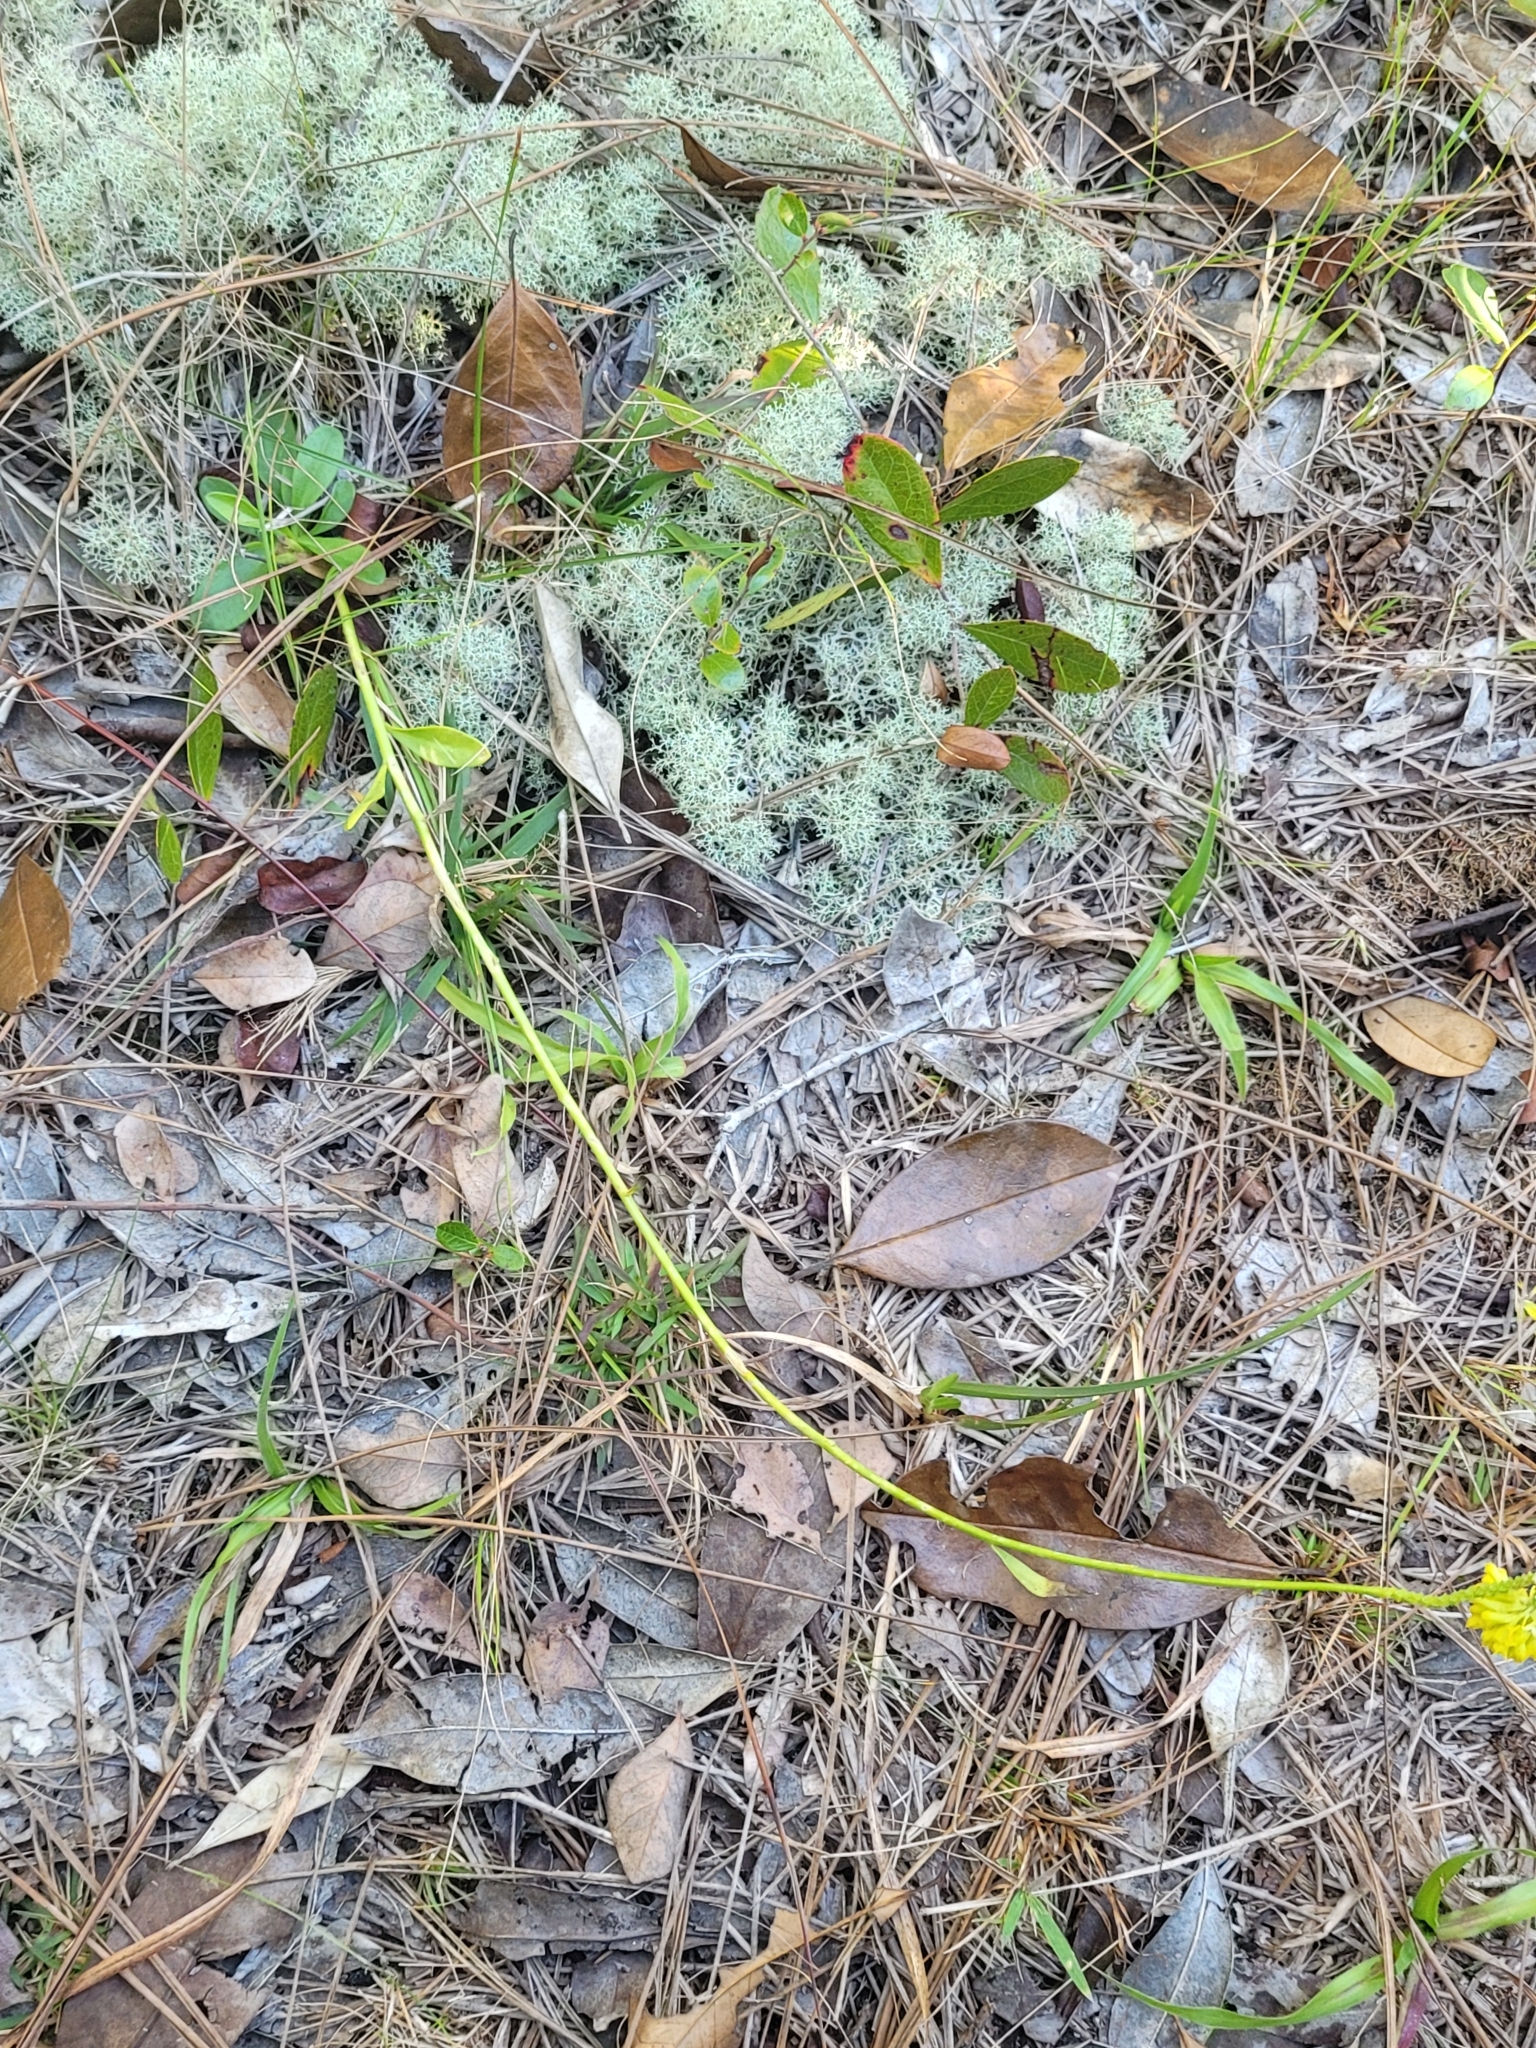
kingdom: Plantae
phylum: Tracheophyta
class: Magnoliopsida
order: Fabales
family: Polygalaceae
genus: Polygala
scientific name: Polygala rugelii
